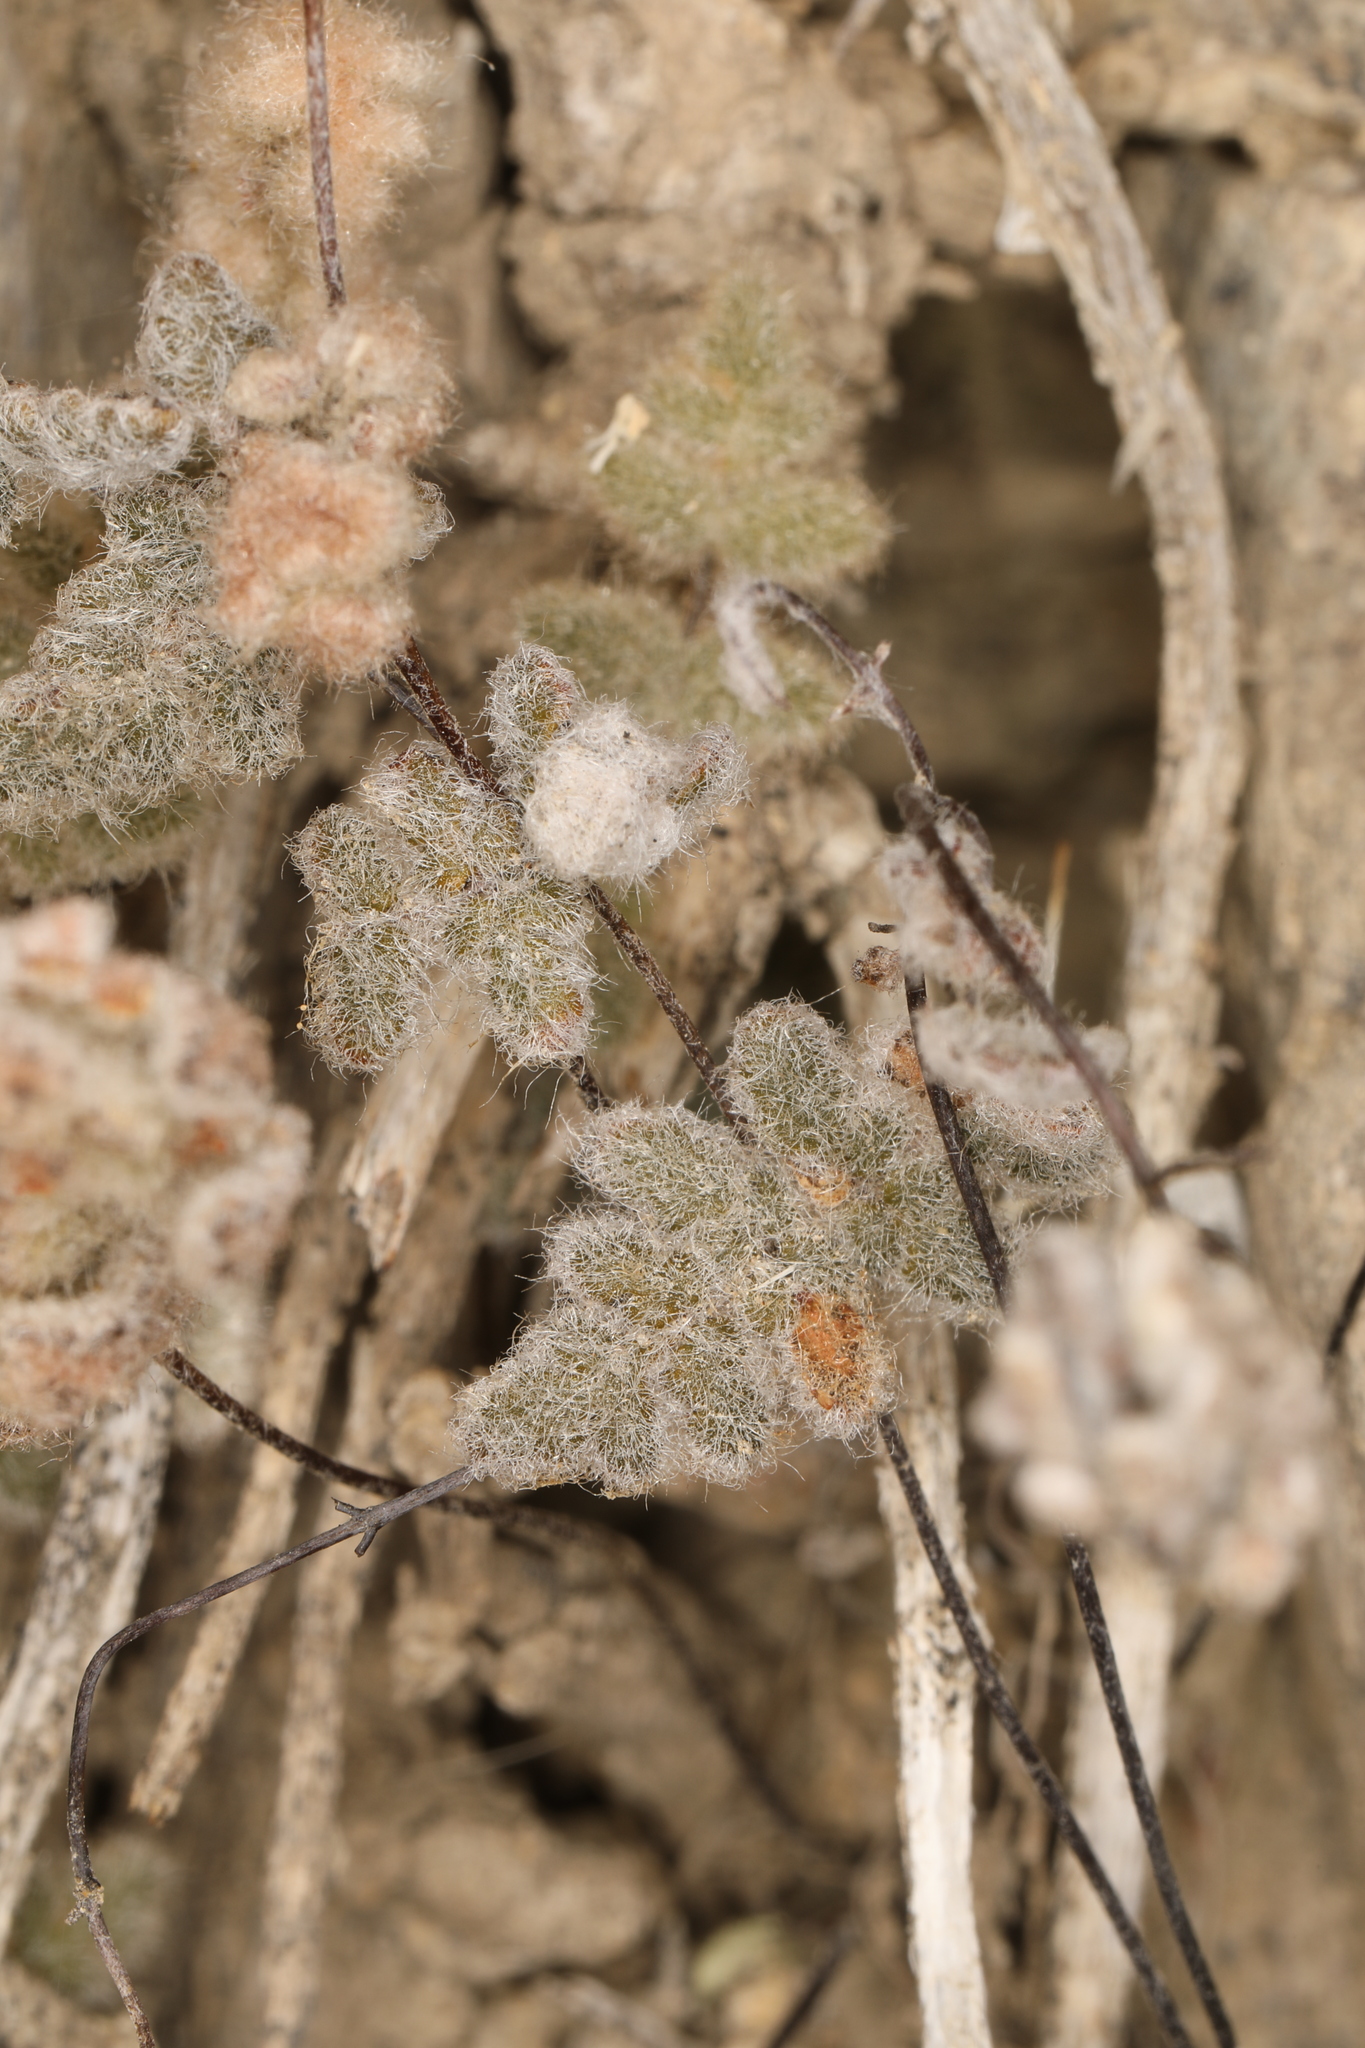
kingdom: Plantae
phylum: Tracheophyta
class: Polypodiopsida
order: Polypodiales
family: Pteridaceae
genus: Myriopteris
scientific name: Myriopteris parryi
